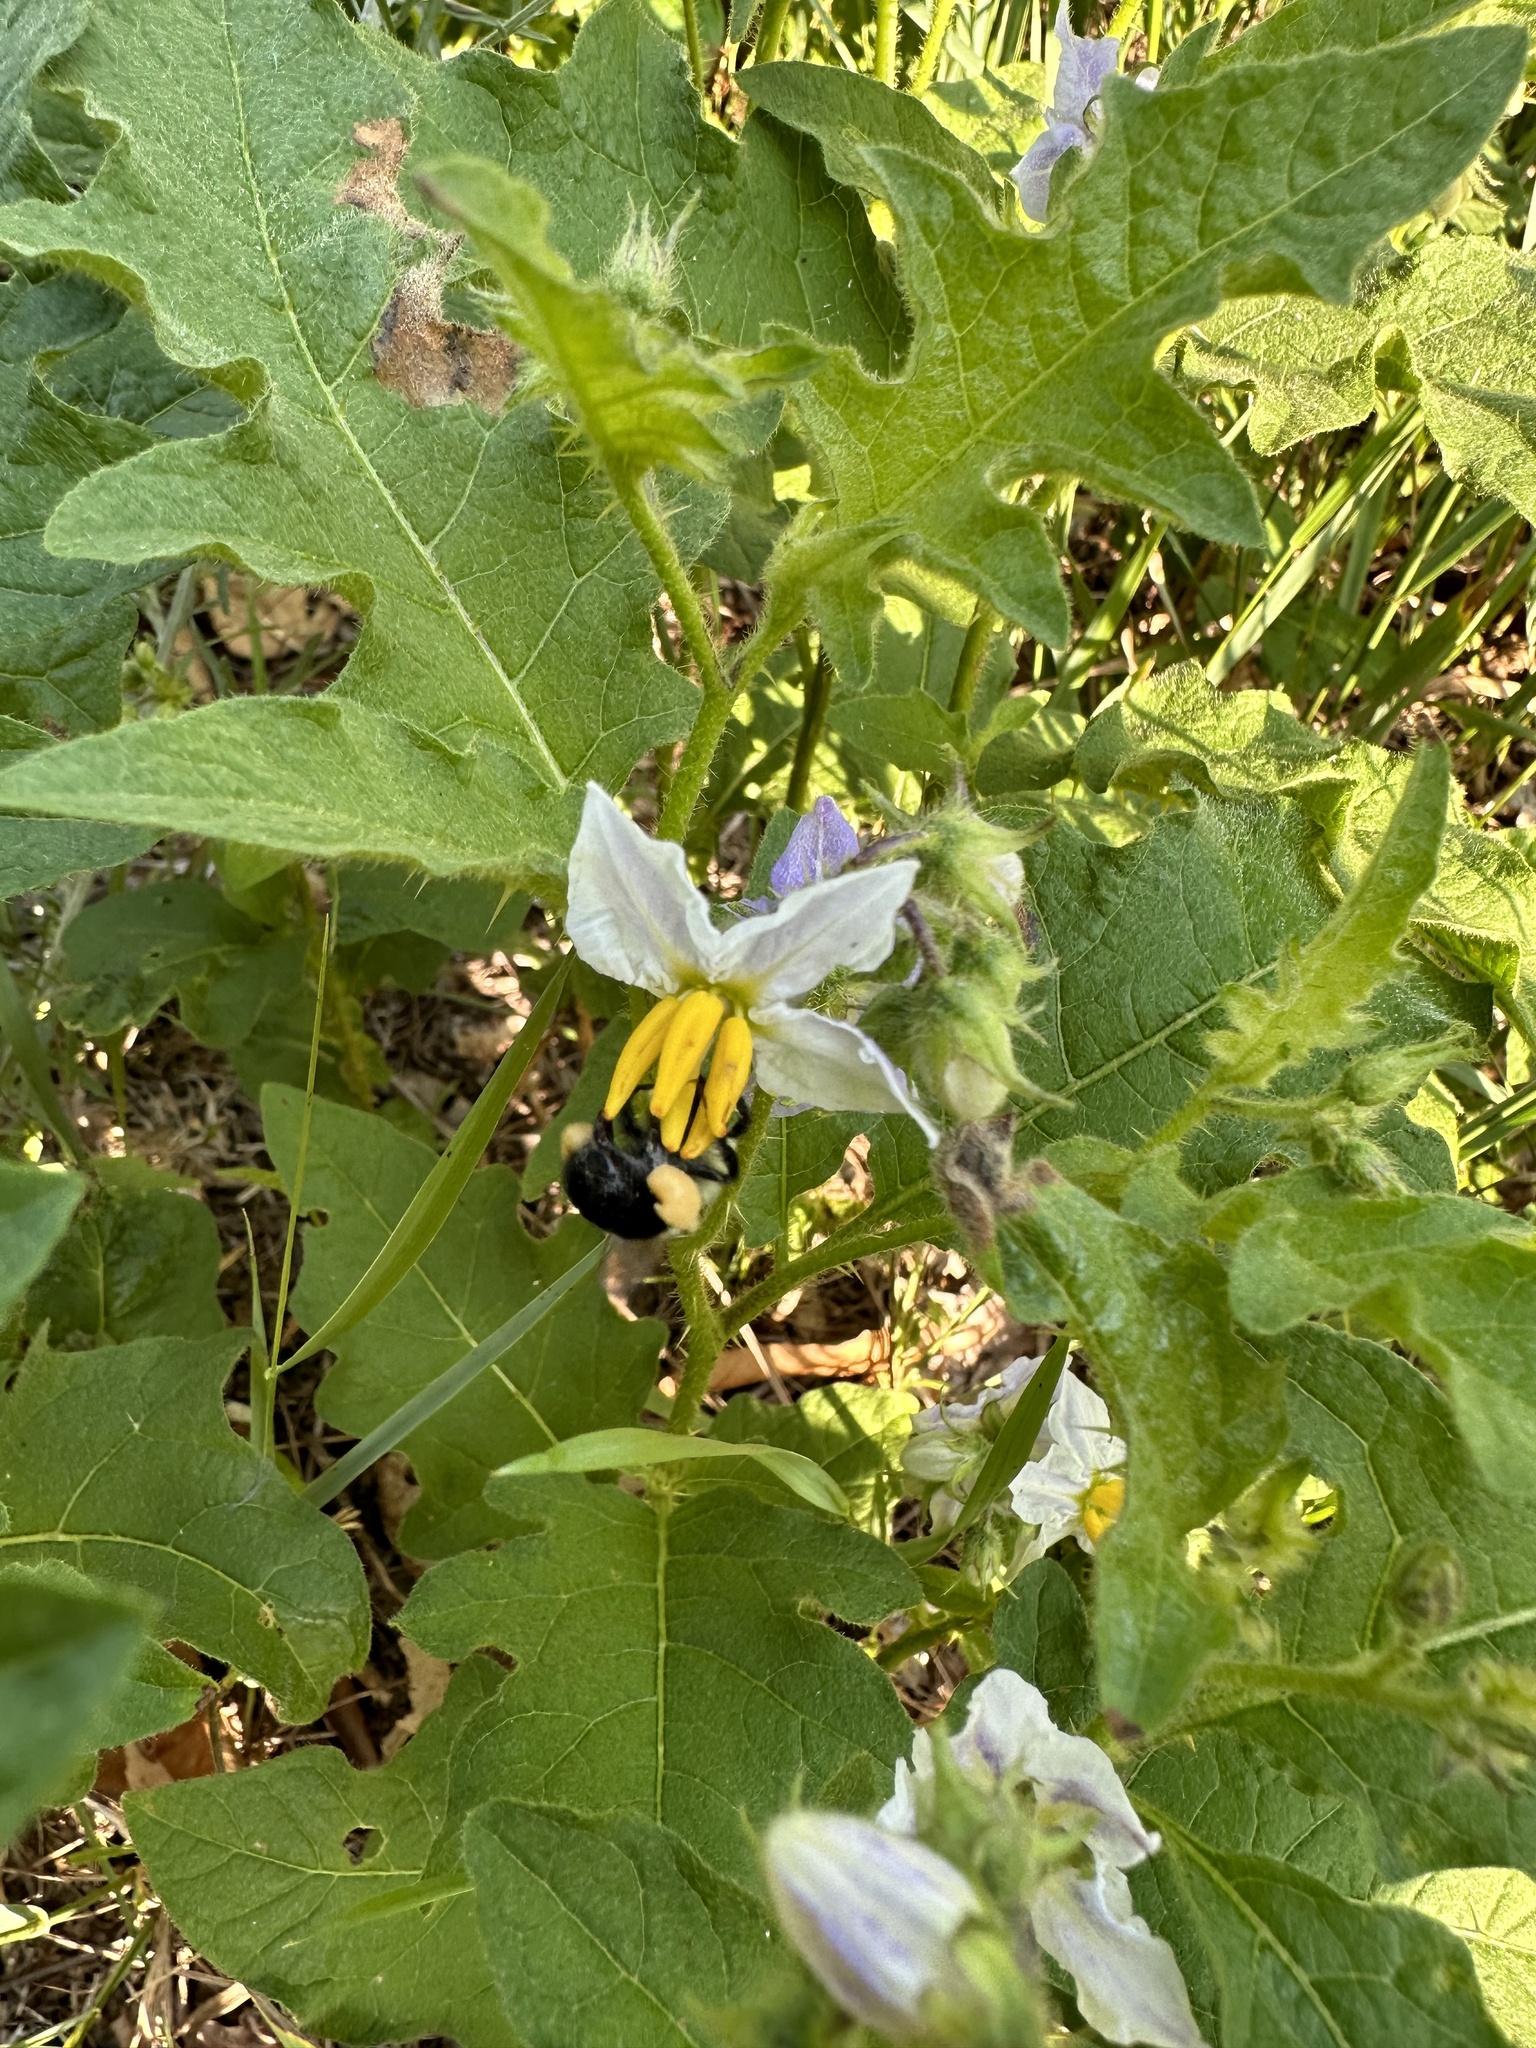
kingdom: Animalia
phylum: Arthropoda
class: Insecta
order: Hymenoptera
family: Apidae
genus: Bombus
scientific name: Bombus impatiens
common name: Common eastern bumble bee
